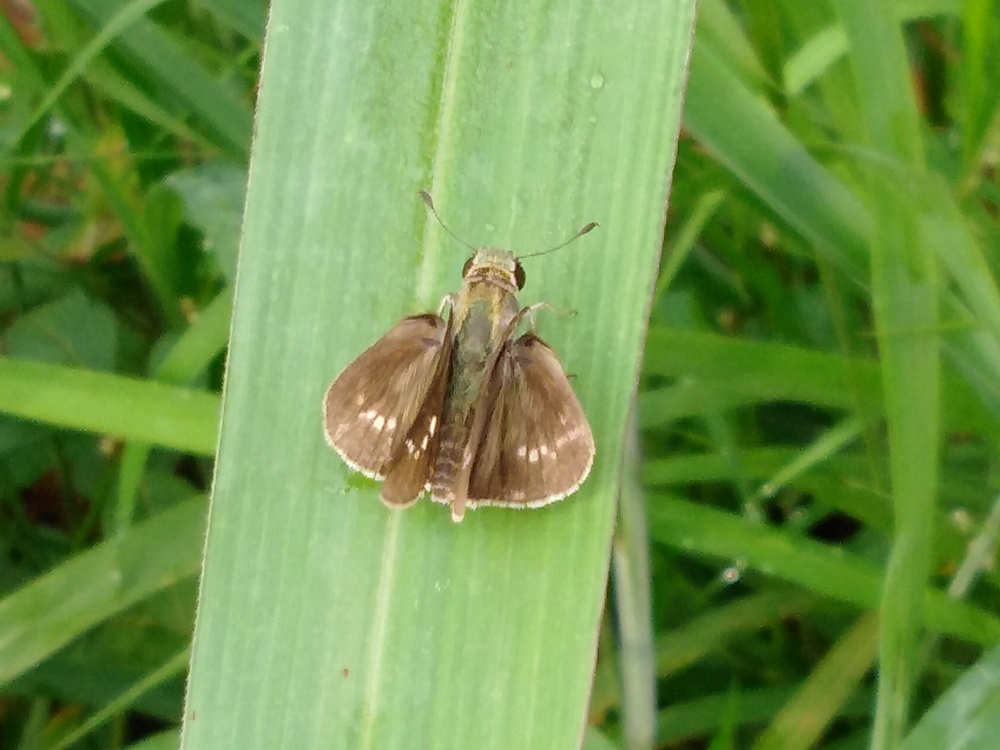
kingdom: Animalia
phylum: Arthropoda
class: Insecta
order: Lepidoptera
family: Hesperiidae
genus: Parnara
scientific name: Parnara naso
